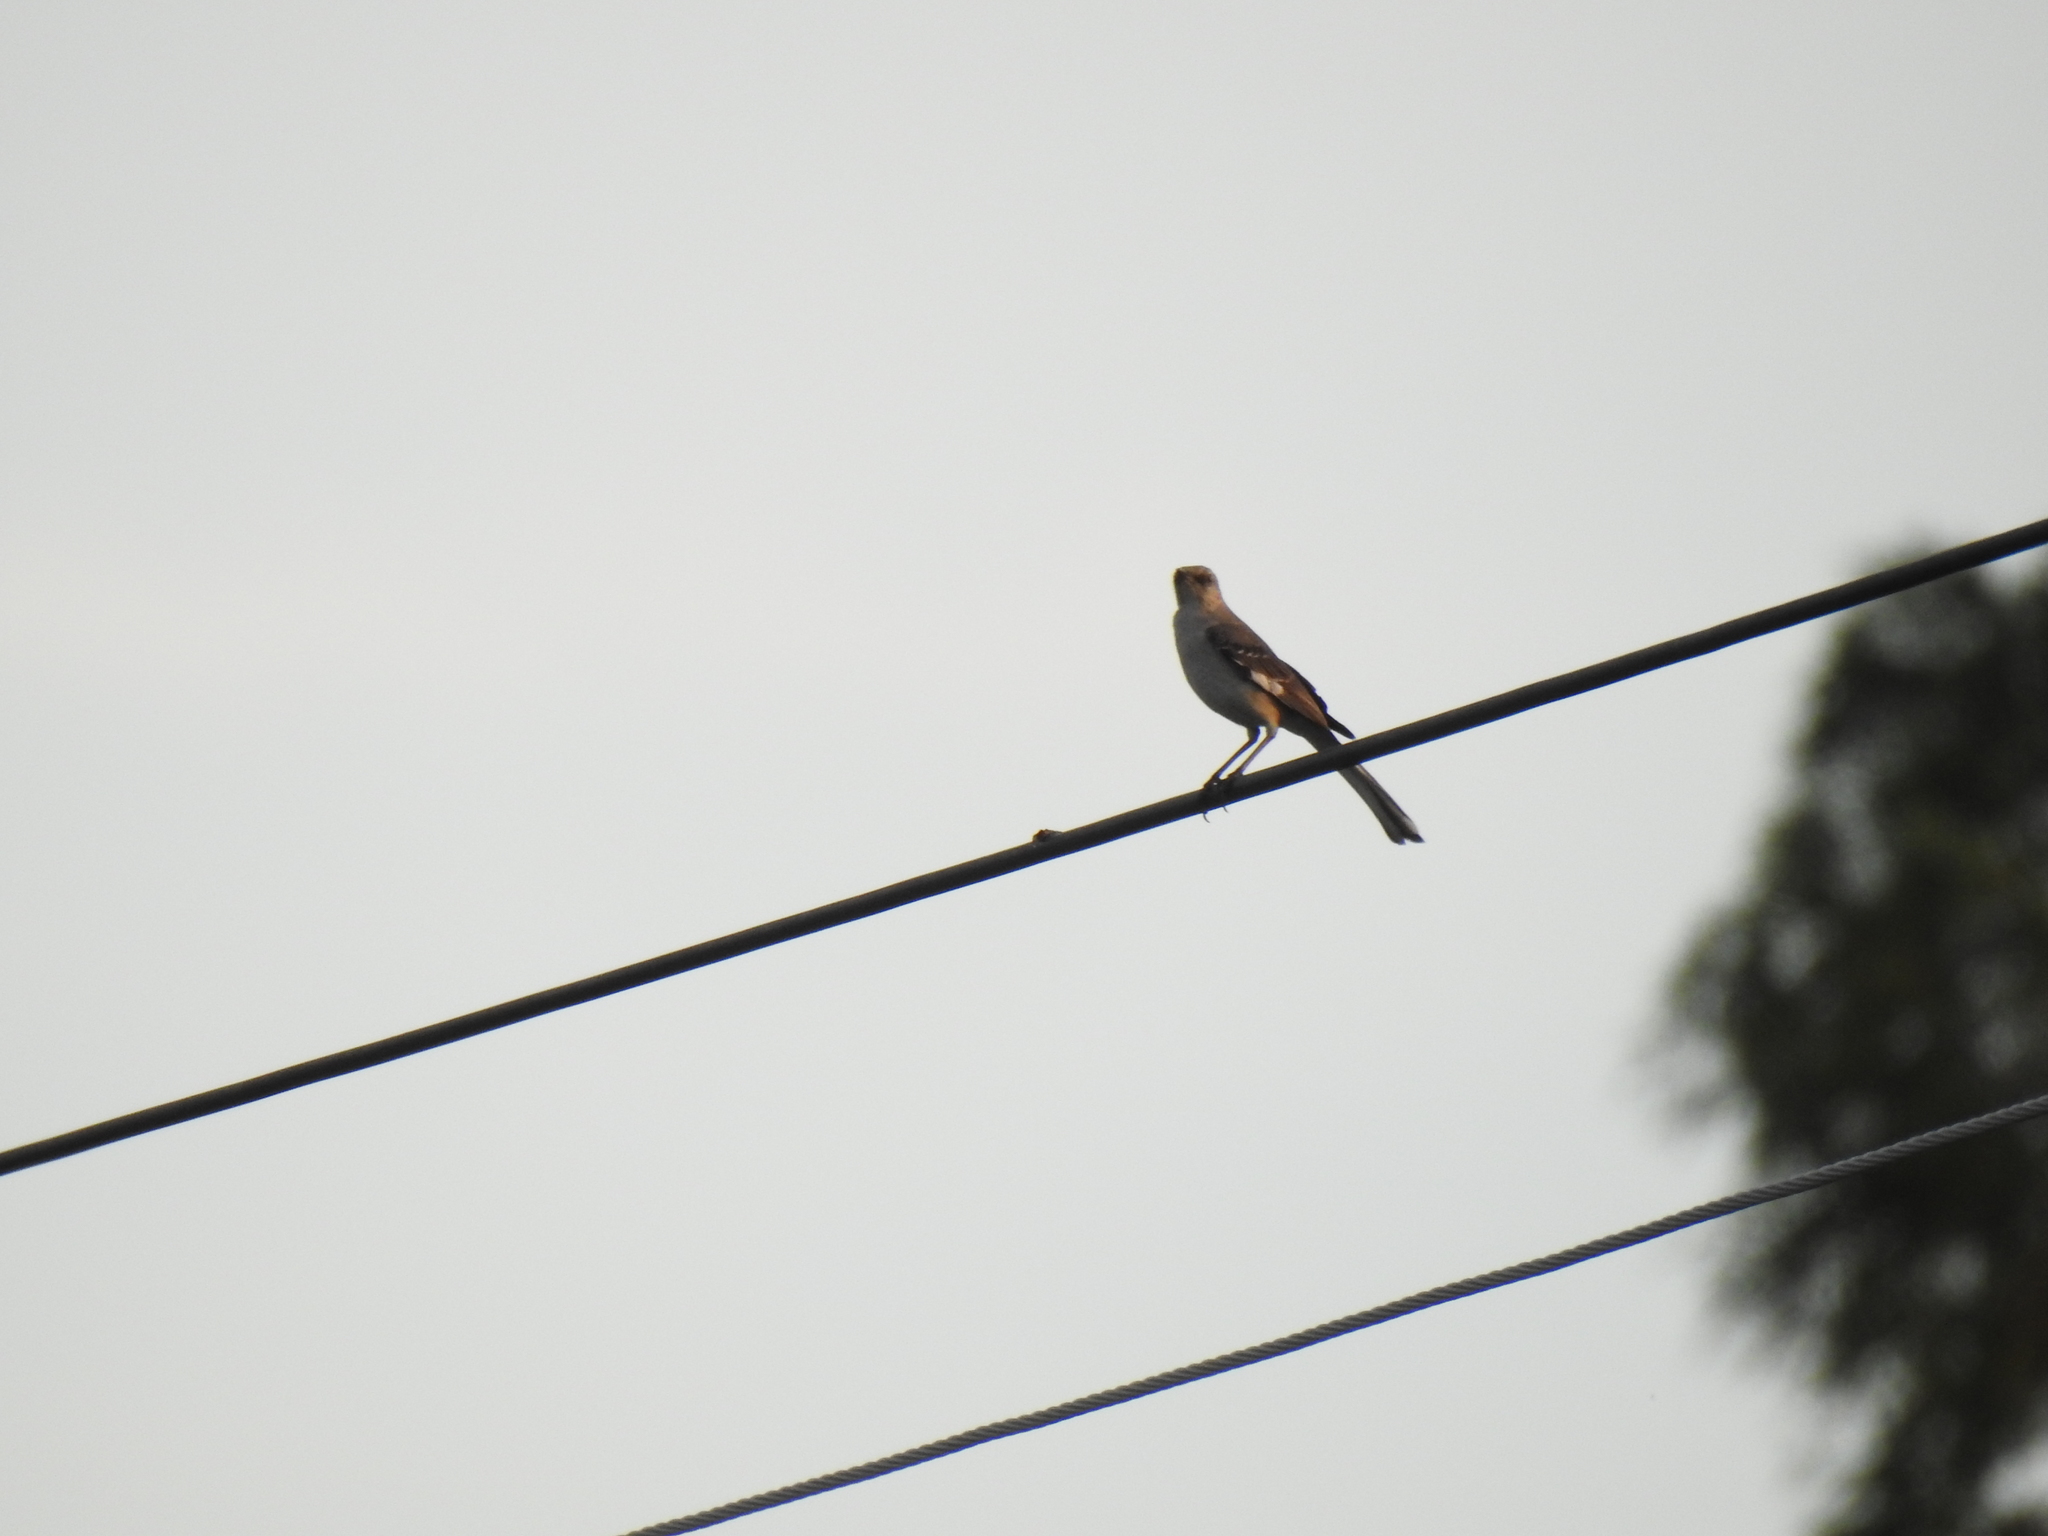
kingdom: Animalia
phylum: Chordata
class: Aves
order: Passeriformes
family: Mimidae
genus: Mimus
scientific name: Mimus polyglottos
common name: Northern mockingbird
